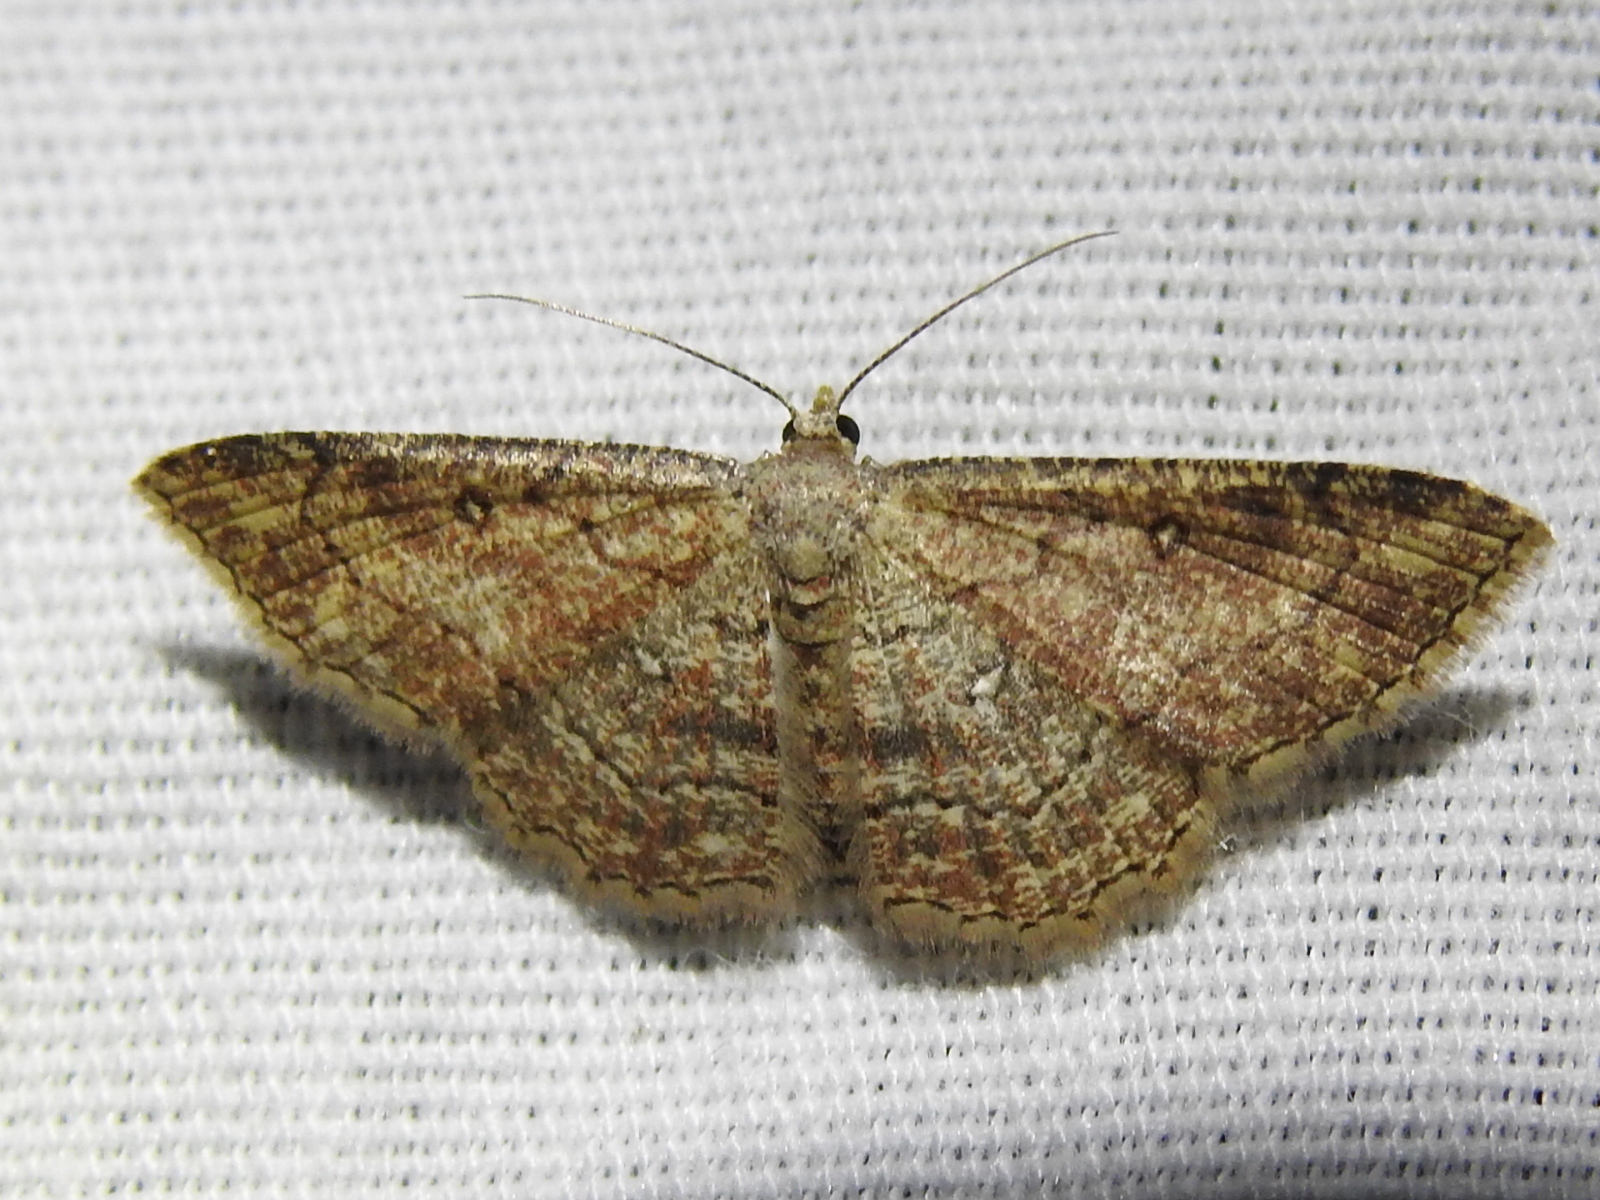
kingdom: Animalia
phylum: Arthropoda
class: Insecta
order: Lepidoptera
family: Geometridae
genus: Cyclophora
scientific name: Cyclophora nanaria
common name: Cankerworm
